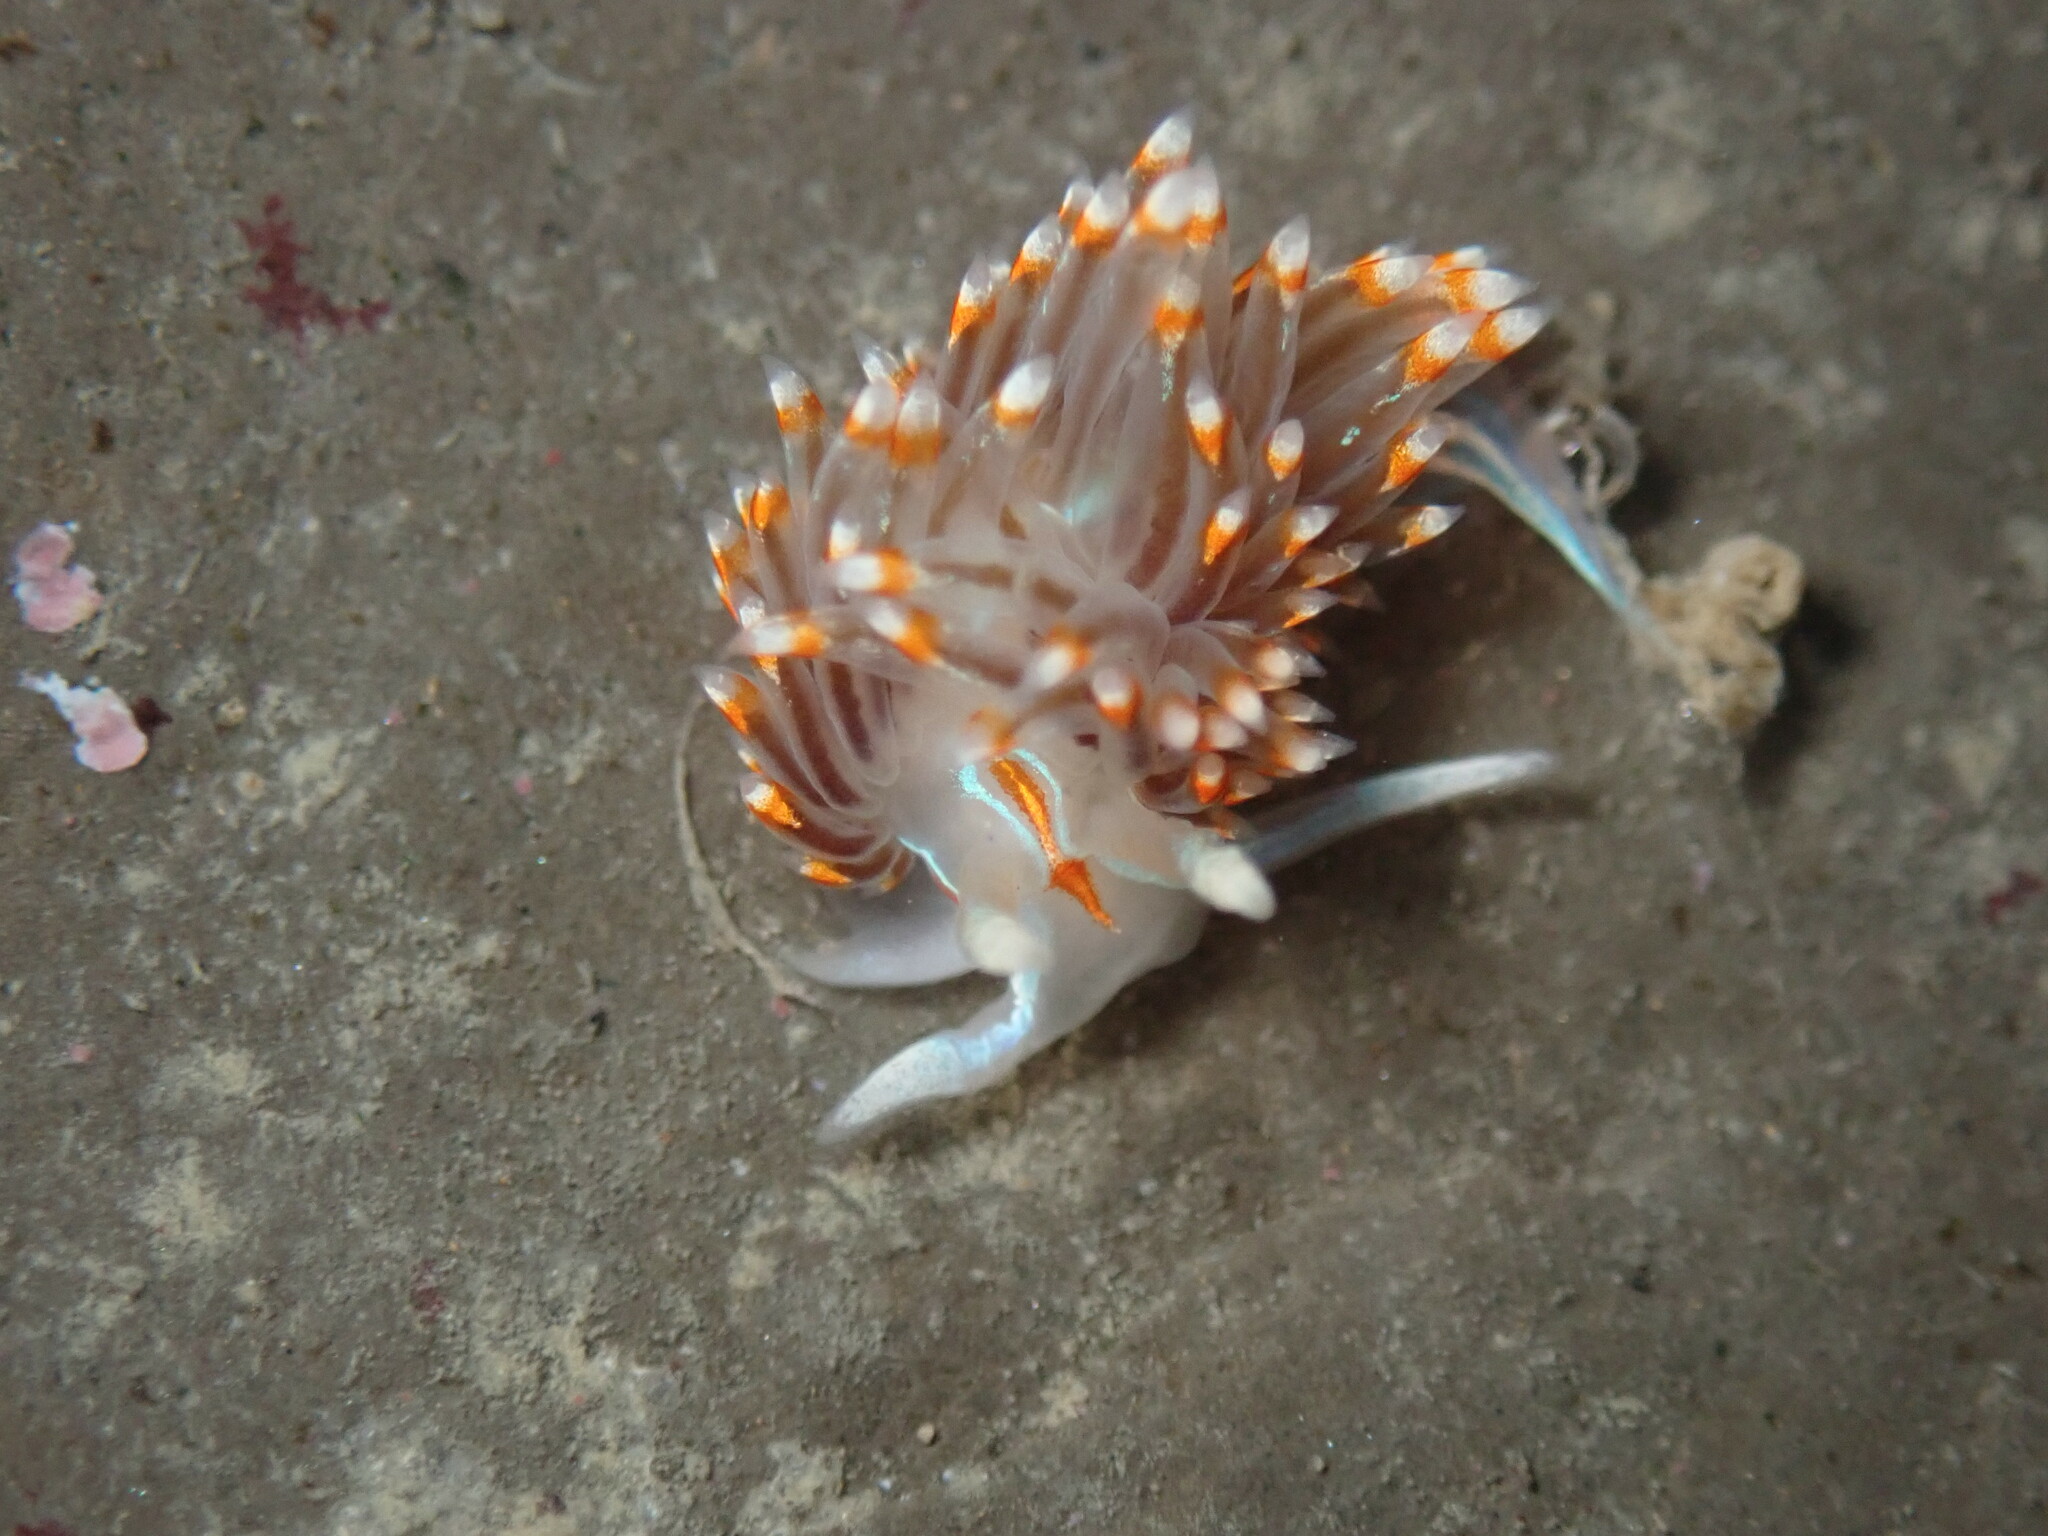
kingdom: Animalia
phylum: Mollusca
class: Gastropoda
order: Nudibranchia
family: Myrrhinidae
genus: Hermissenda
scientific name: Hermissenda opalescens
